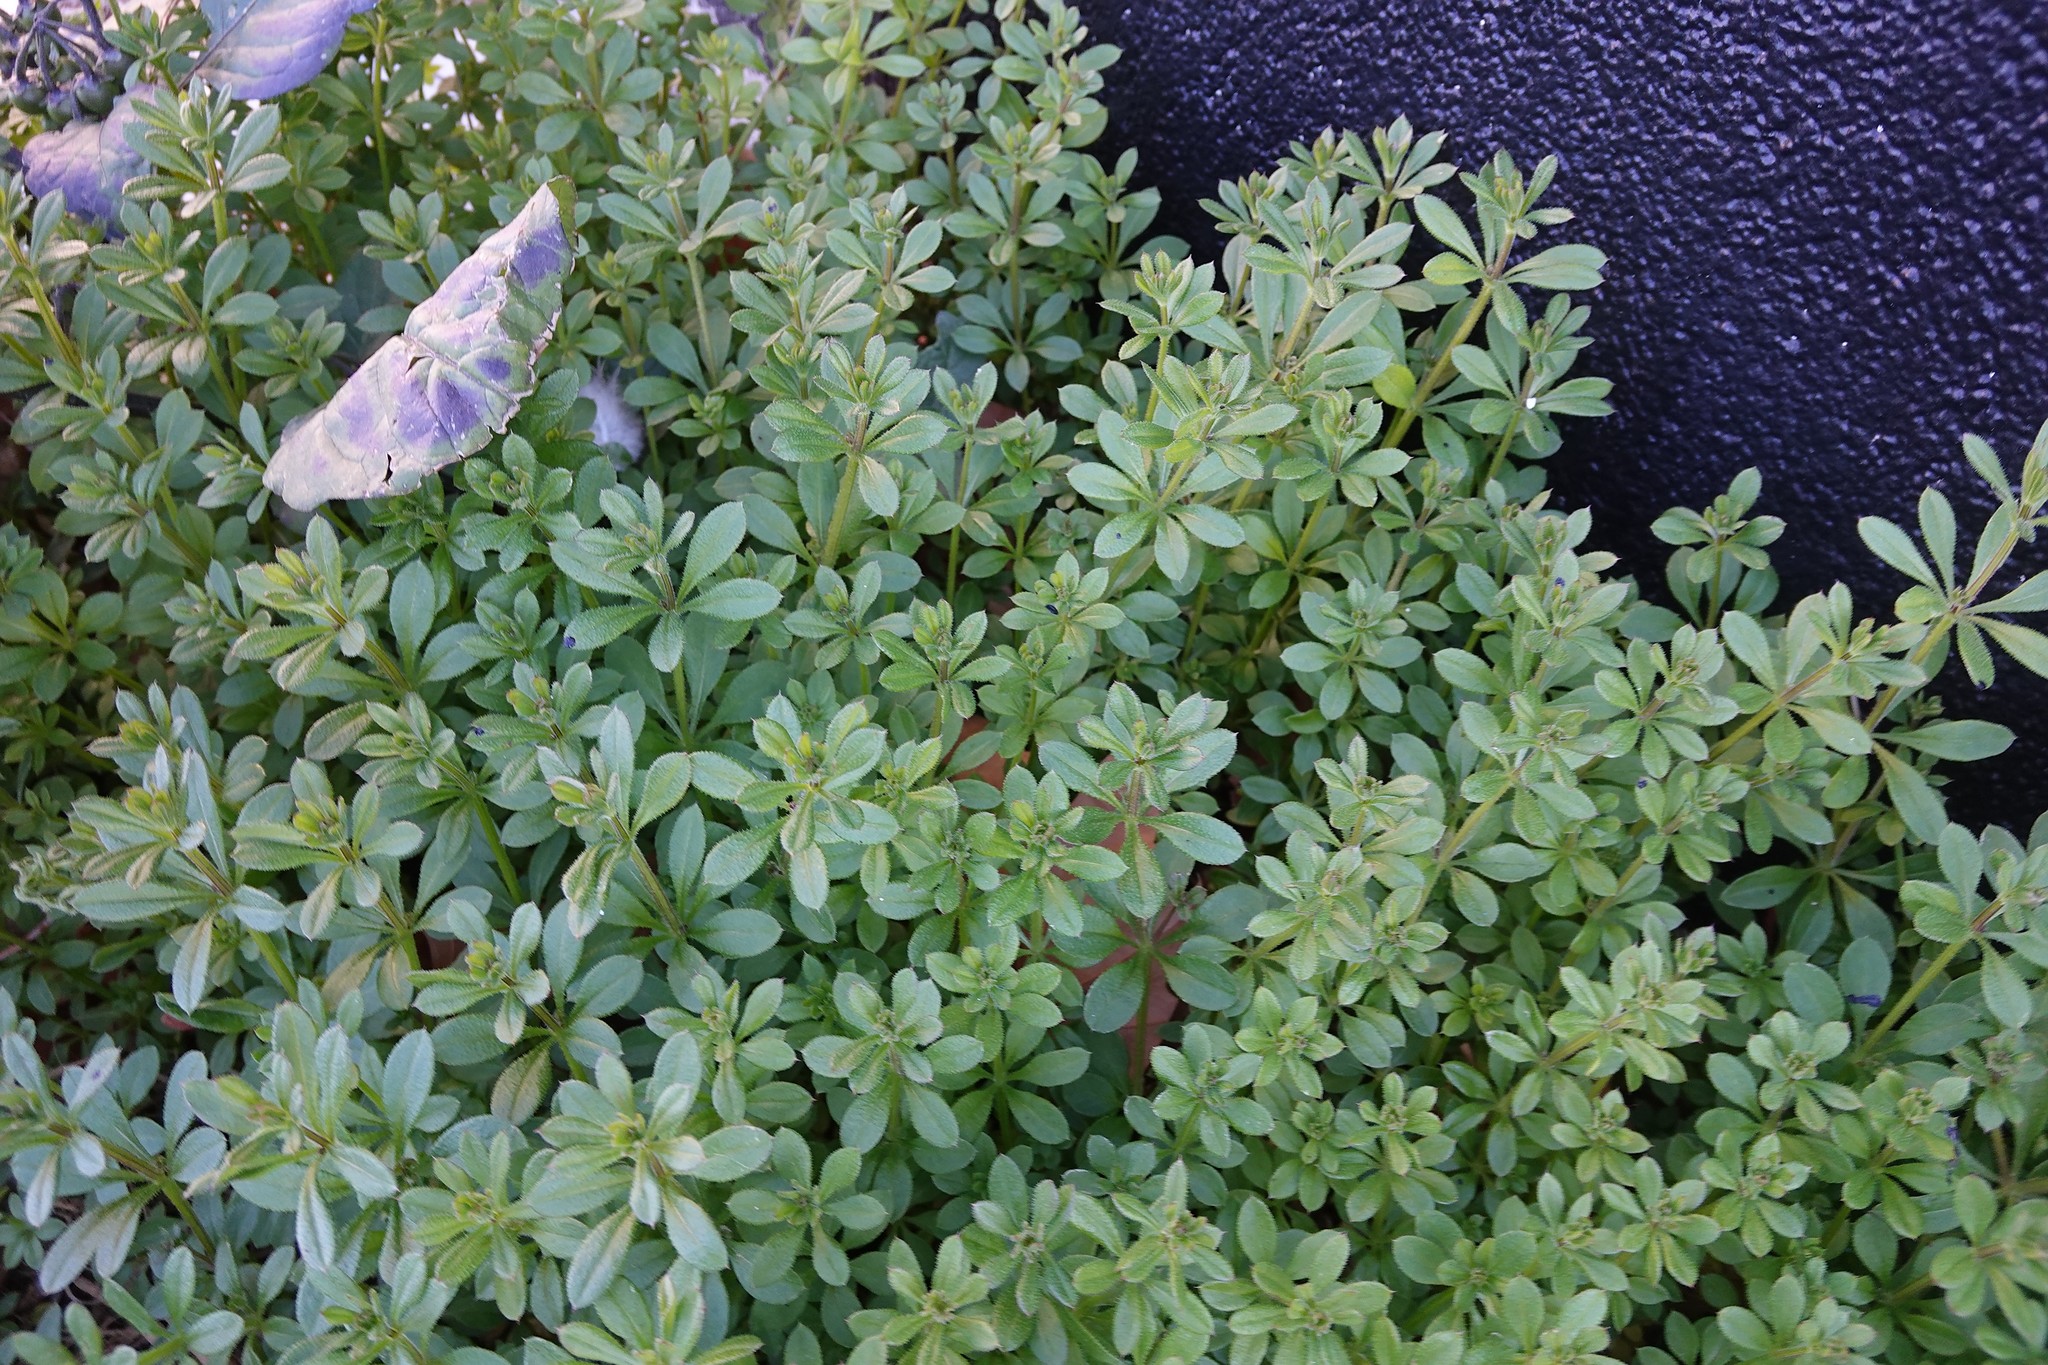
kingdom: Plantae
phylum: Tracheophyta
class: Magnoliopsida
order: Gentianales
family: Rubiaceae
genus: Galium
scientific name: Galium aparine
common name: Cleavers
